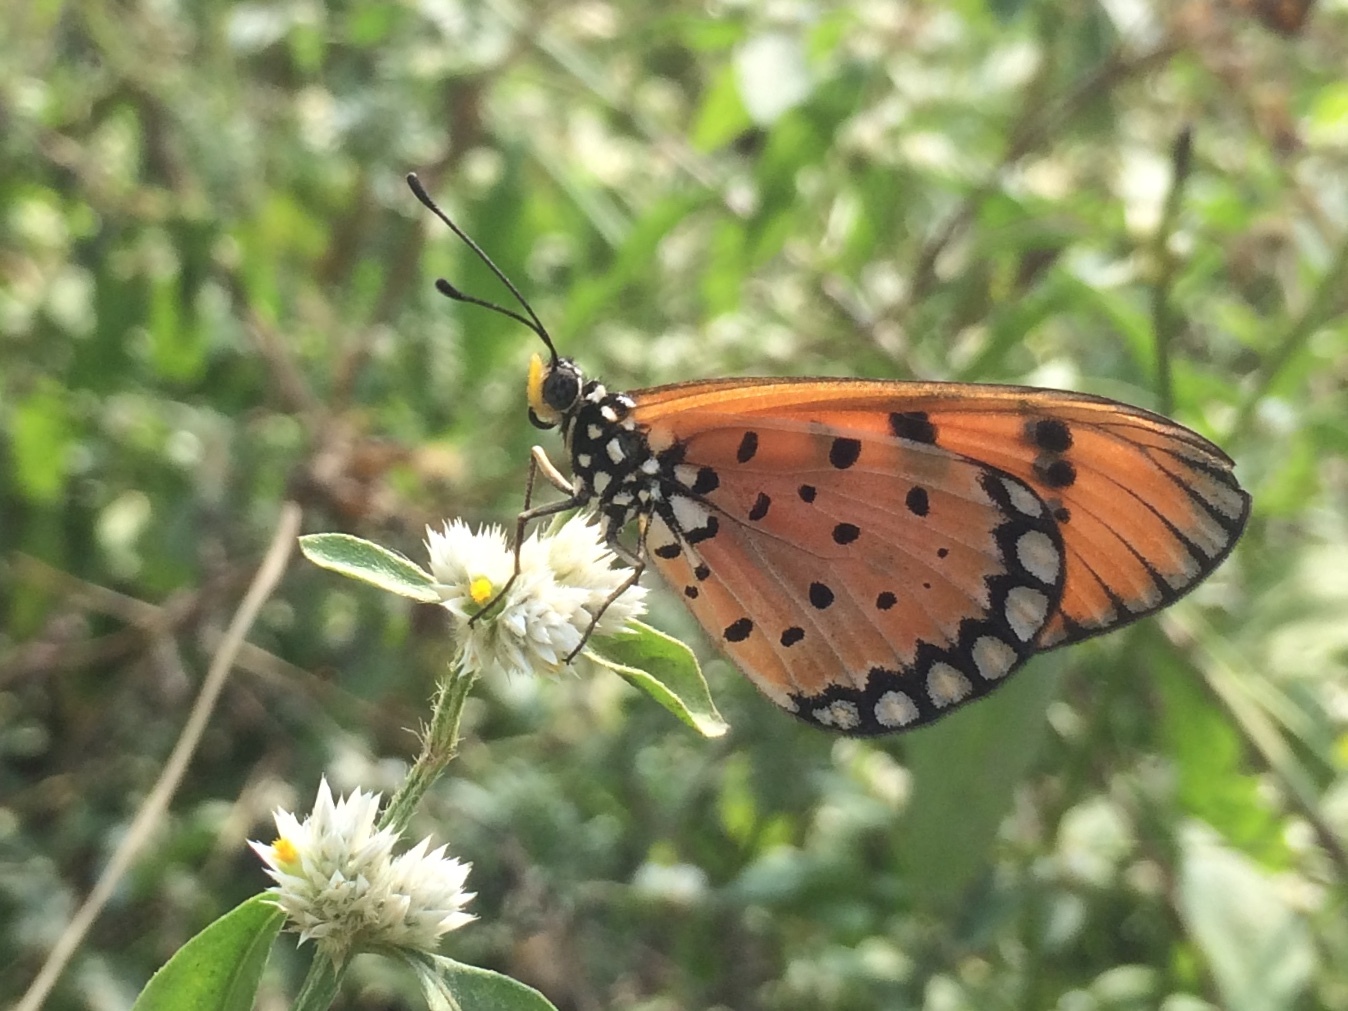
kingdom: Animalia
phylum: Arthropoda
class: Insecta
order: Lepidoptera
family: Nymphalidae
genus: Acraea
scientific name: Acraea terpsicore
